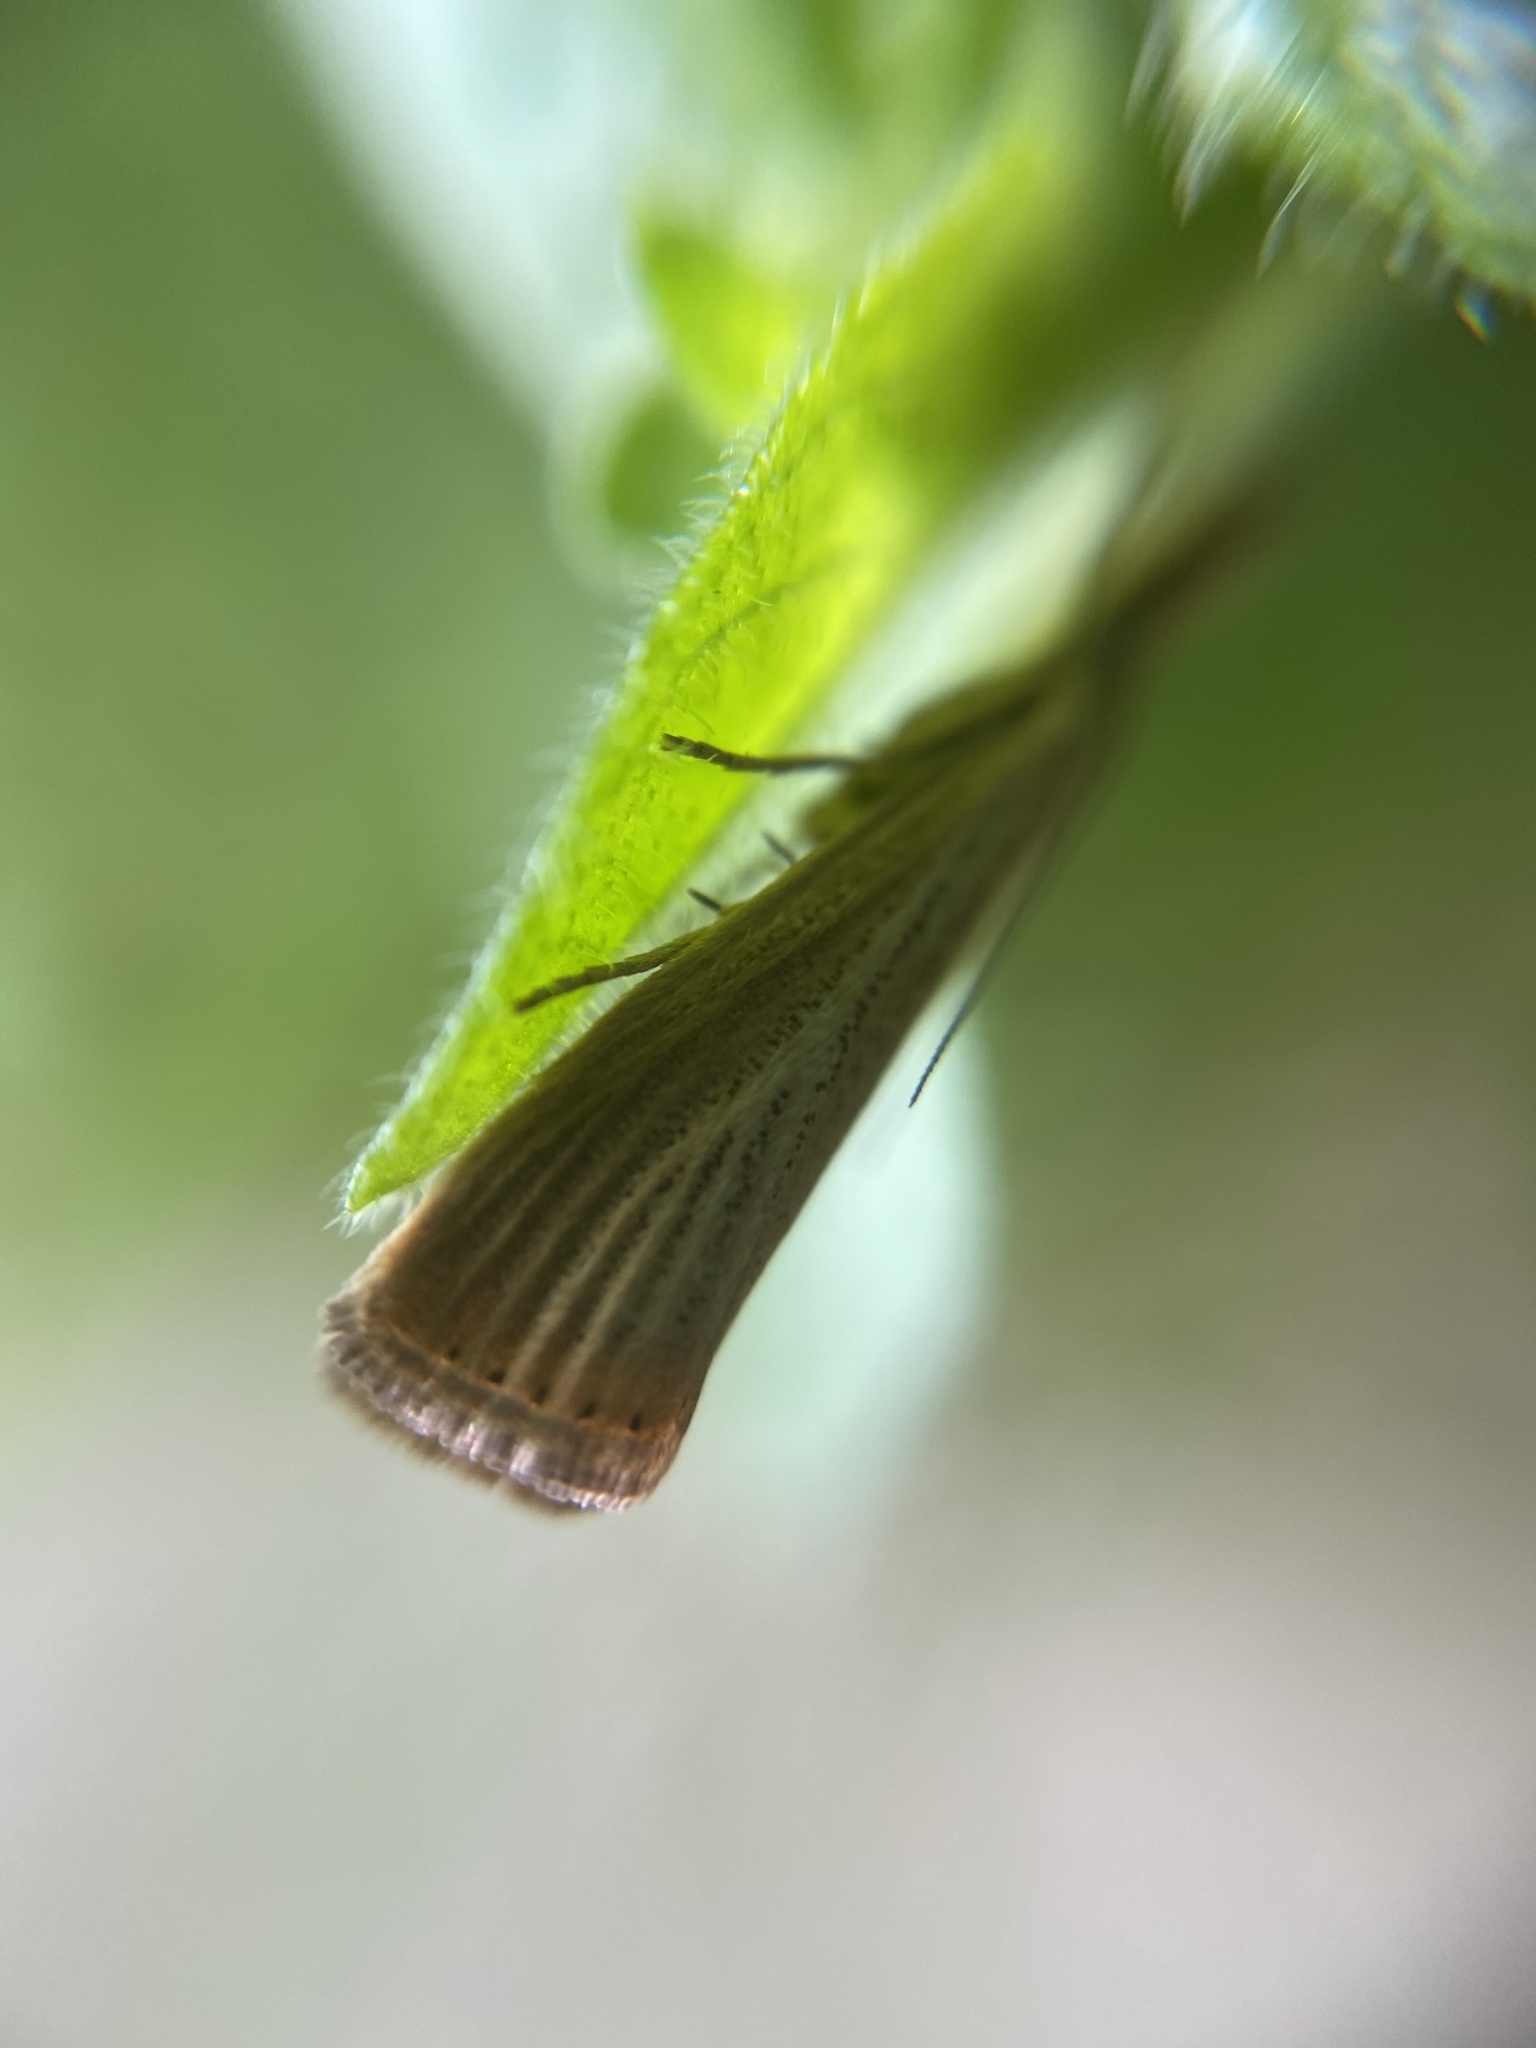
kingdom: Animalia
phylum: Arthropoda
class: Insecta
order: Lepidoptera
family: Crambidae
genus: Agriphila
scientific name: Agriphila straminella
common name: Straw grass-veneer
